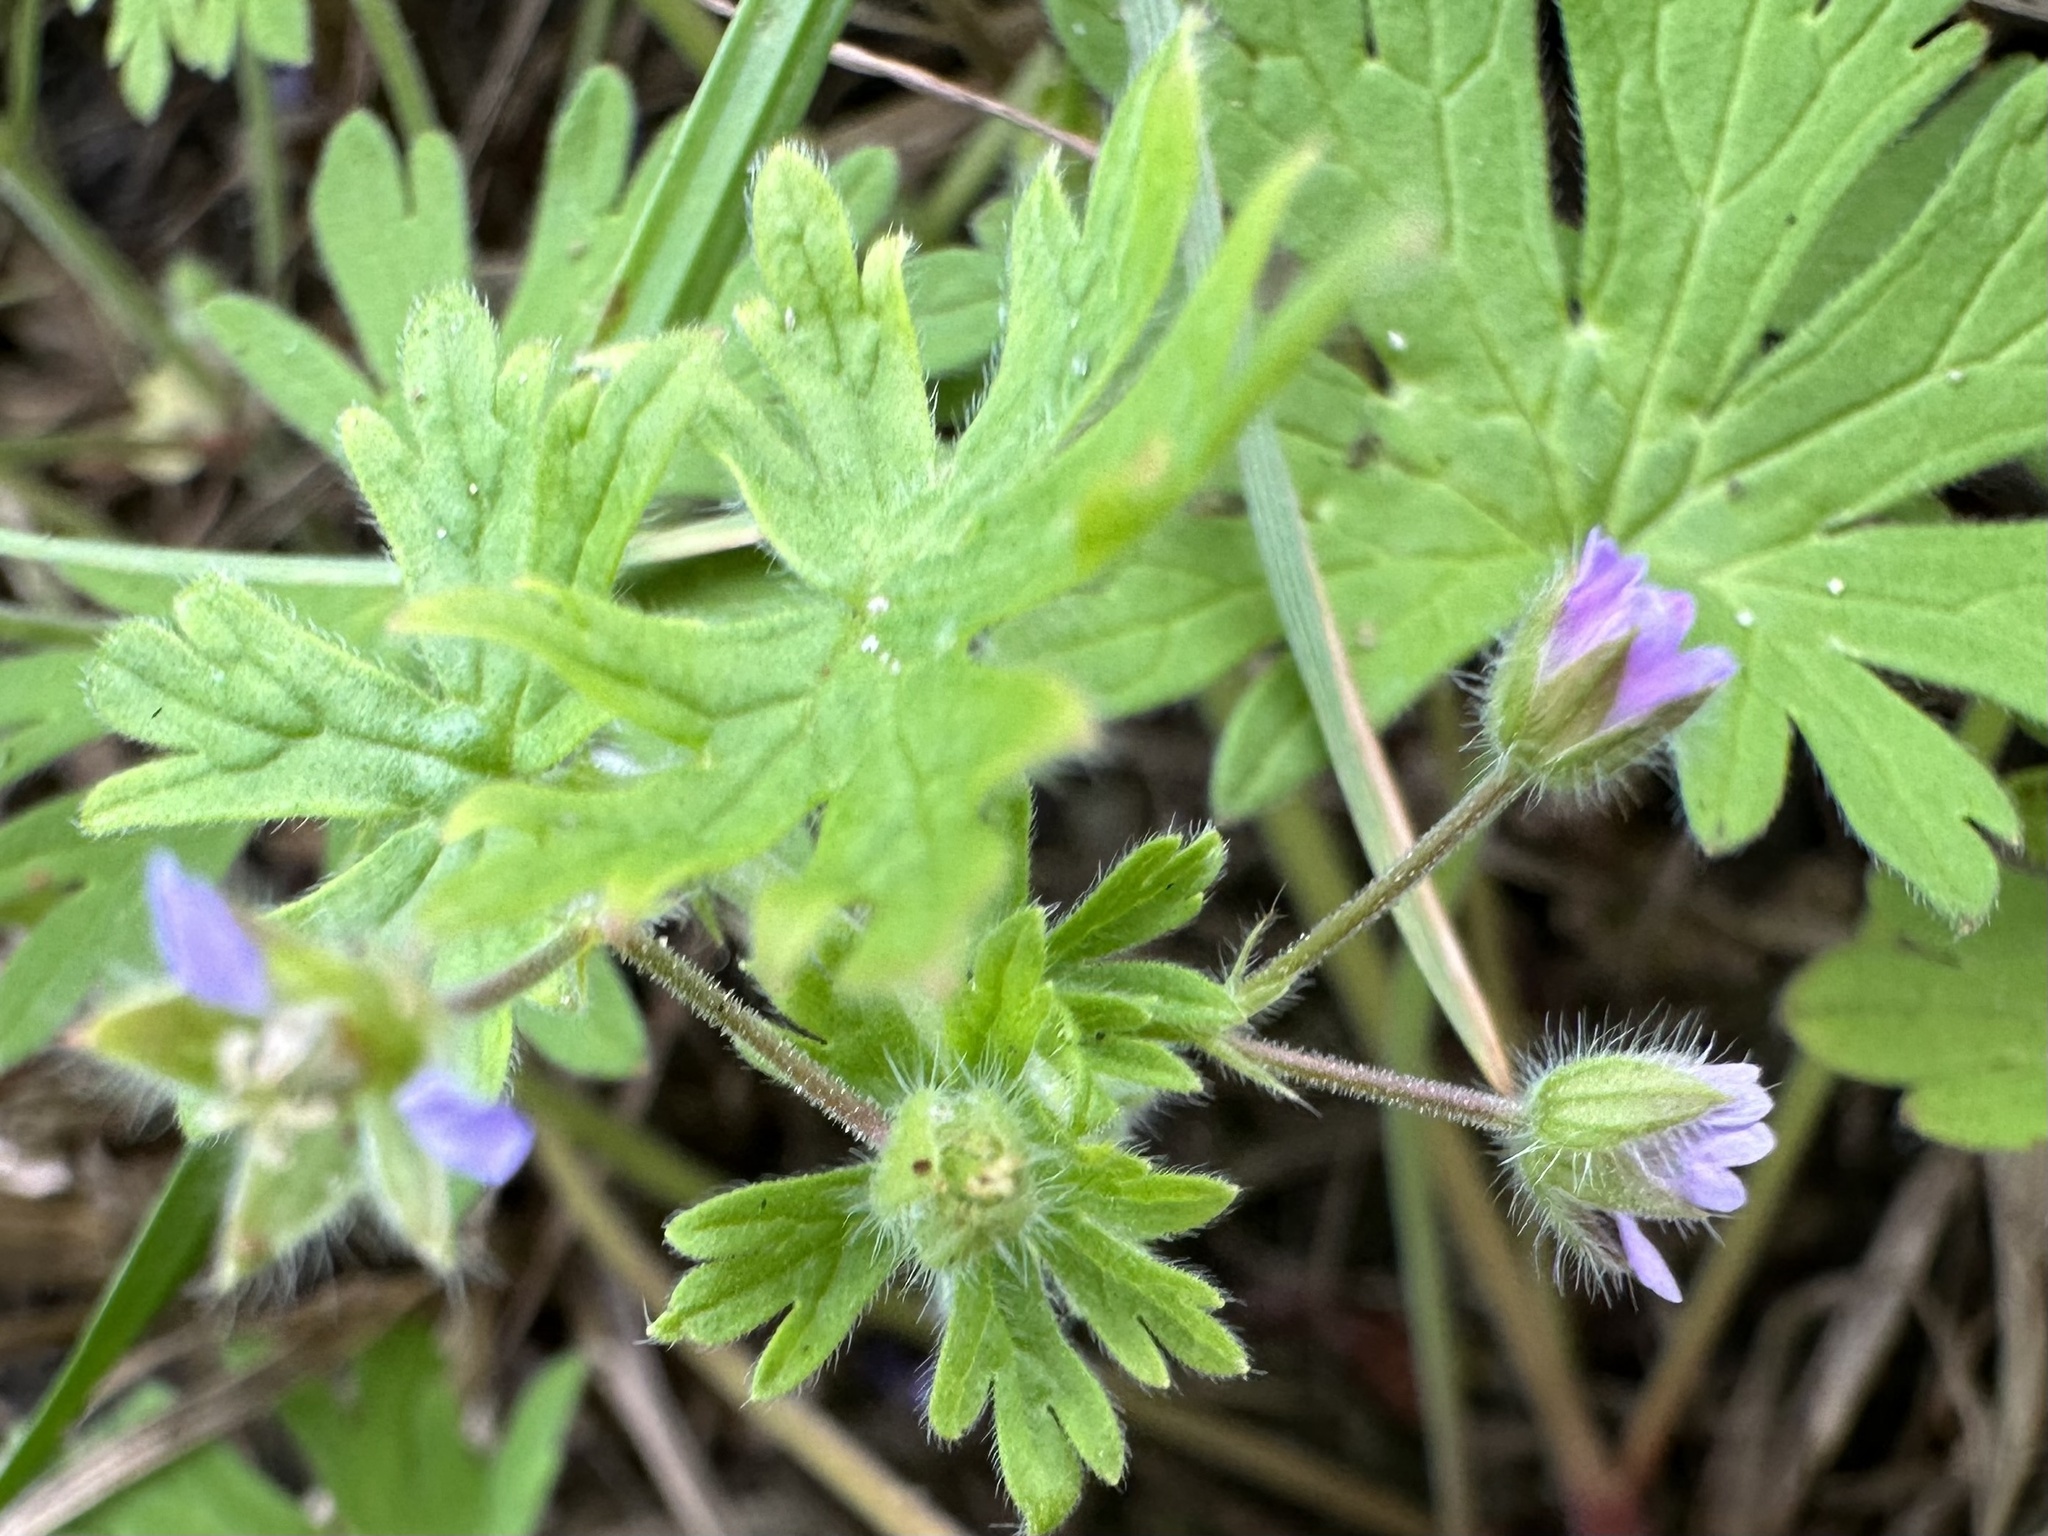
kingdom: Plantae
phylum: Tracheophyta
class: Magnoliopsida
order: Geraniales
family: Geraniaceae
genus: Geranium
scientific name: Geranium pusillum
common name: Small geranium
